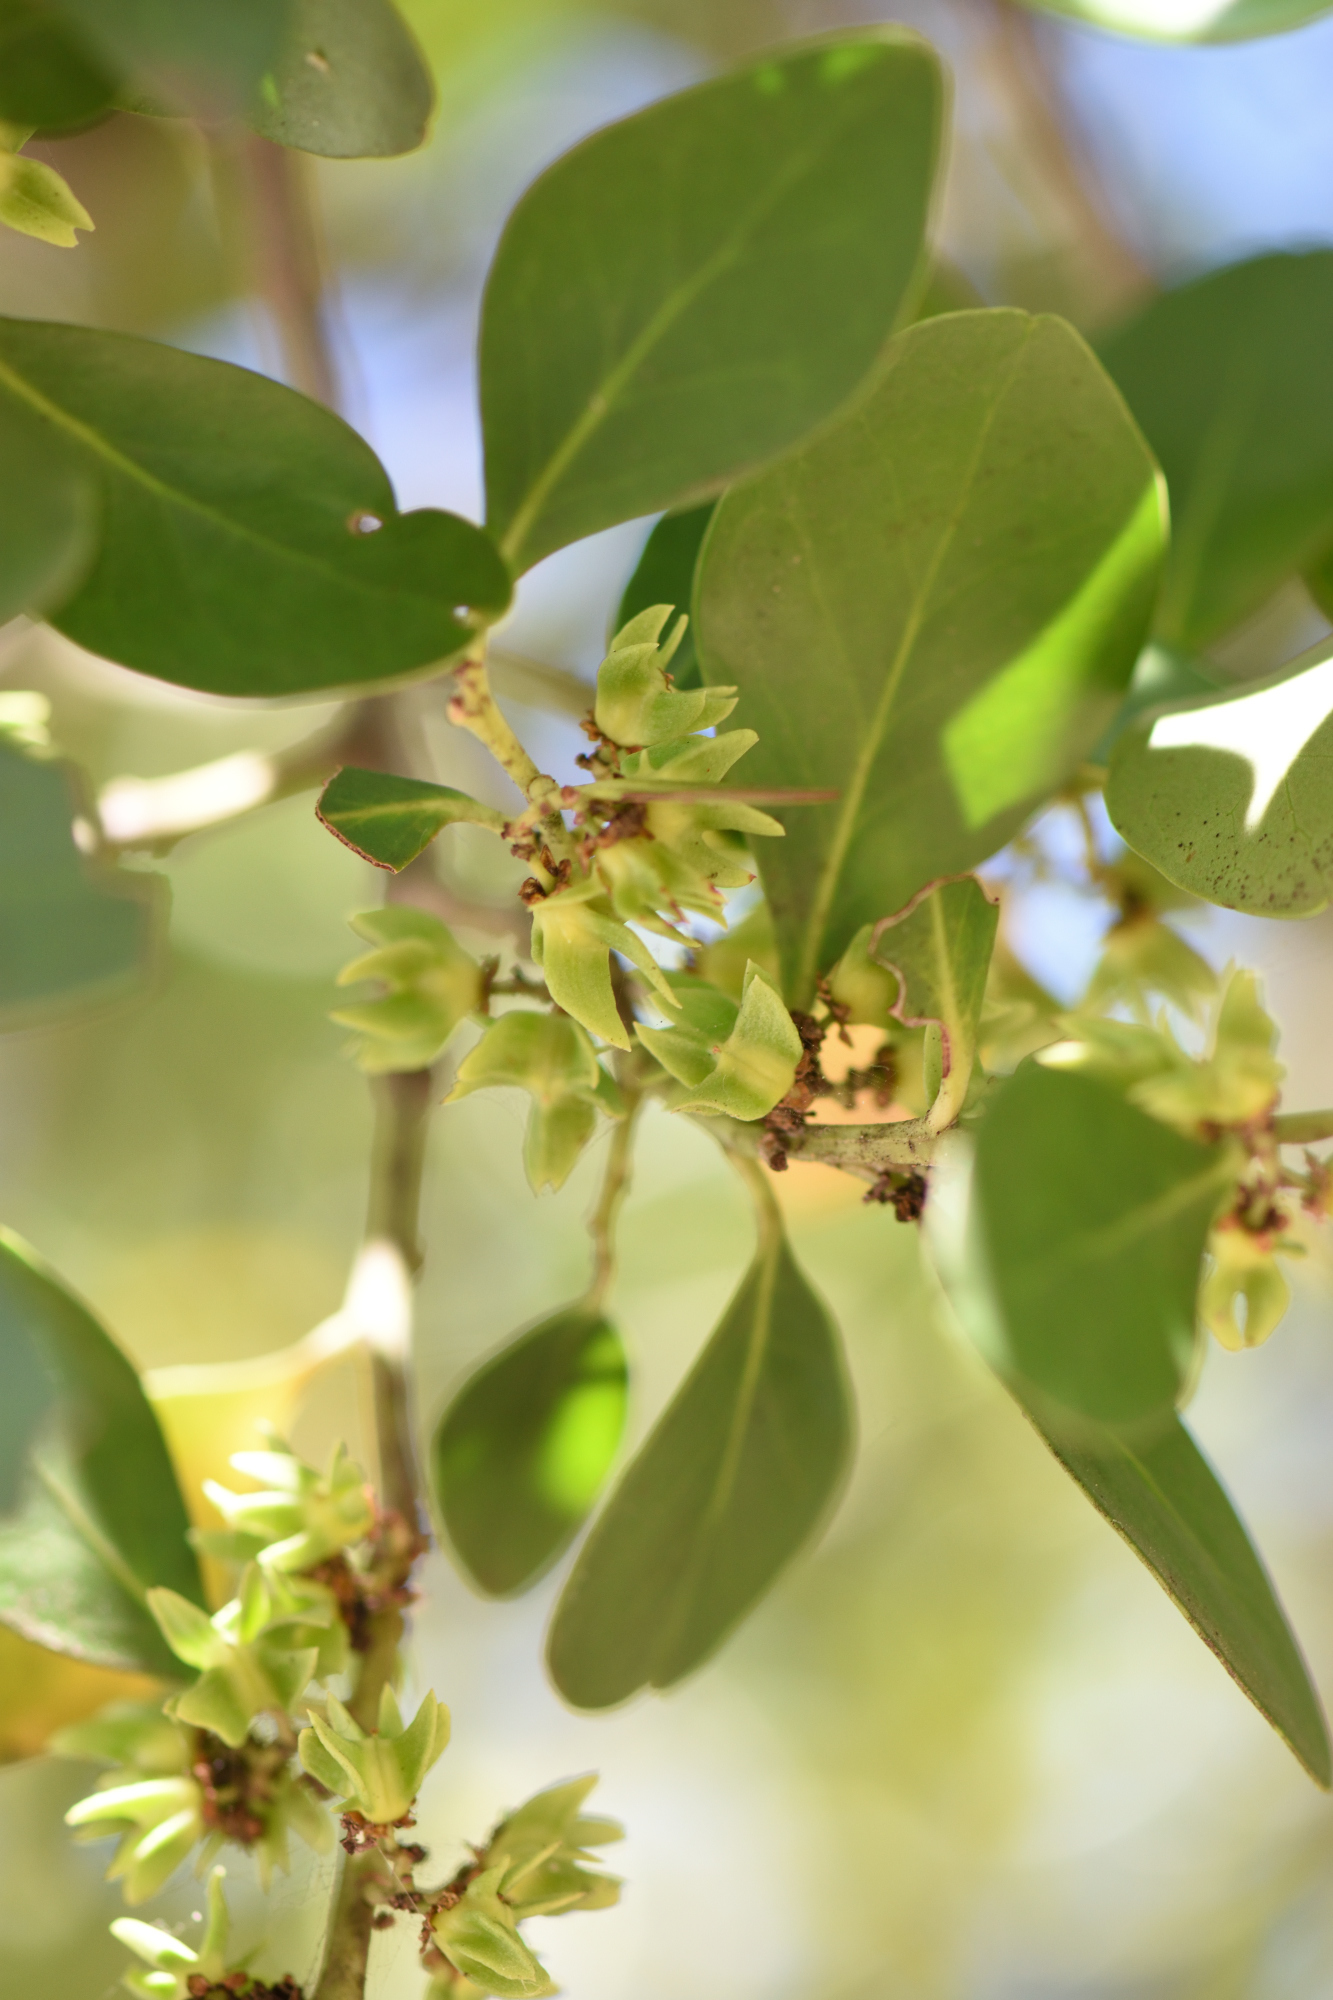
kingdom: Plantae
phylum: Tracheophyta
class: Magnoliopsida
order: Celastrales
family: Celastraceae
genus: Pterocelastrus
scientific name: Pterocelastrus tricuspidatus
